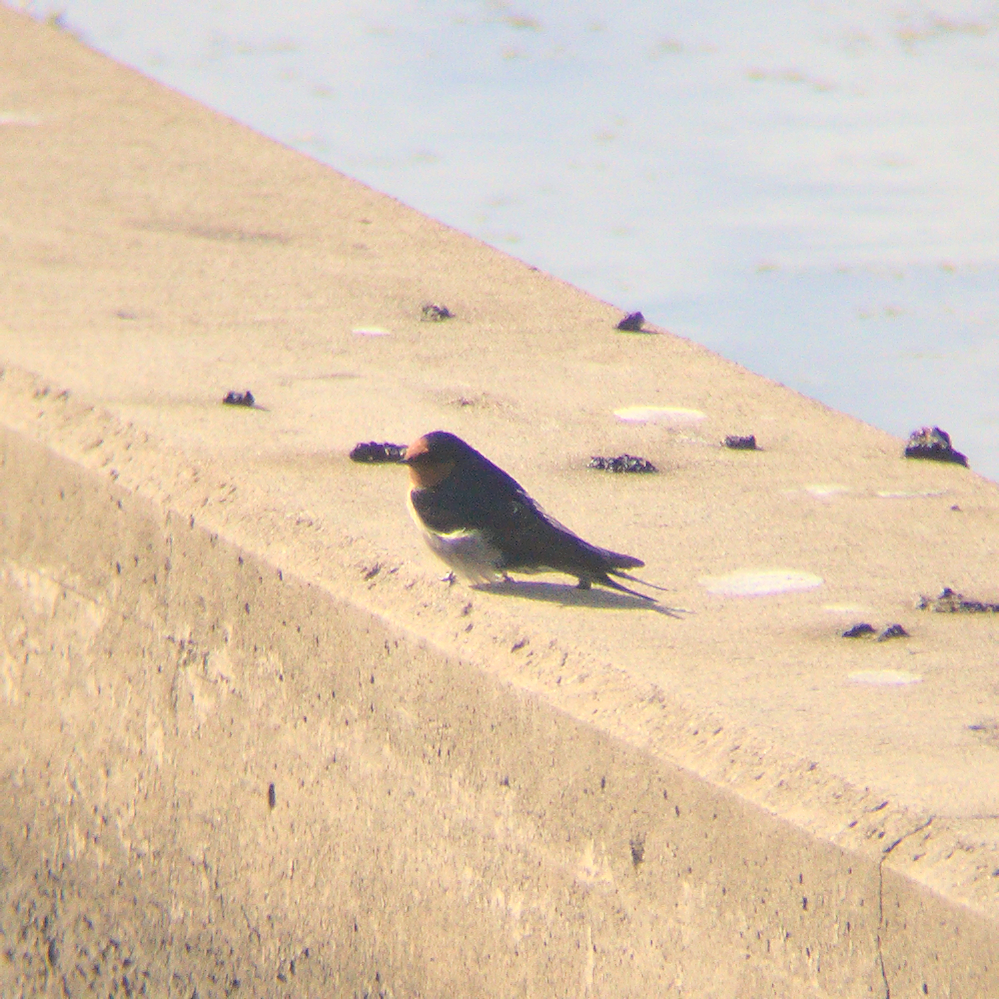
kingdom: Animalia
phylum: Chordata
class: Aves
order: Passeriformes
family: Hirundinidae
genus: Hirundo
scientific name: Hirundo neoxena
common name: Welcome swallow
